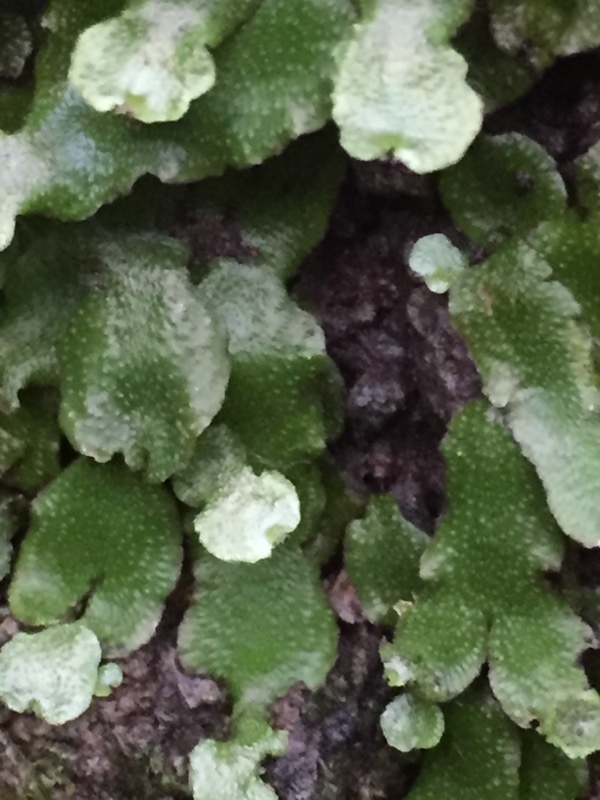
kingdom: Plantae
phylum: Marchantiophyta
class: Marchantiopsida
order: Marchantiales
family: Conocephalaceae
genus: Conocephalum
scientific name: Conocephalum conicum
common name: Great scented liverwort
